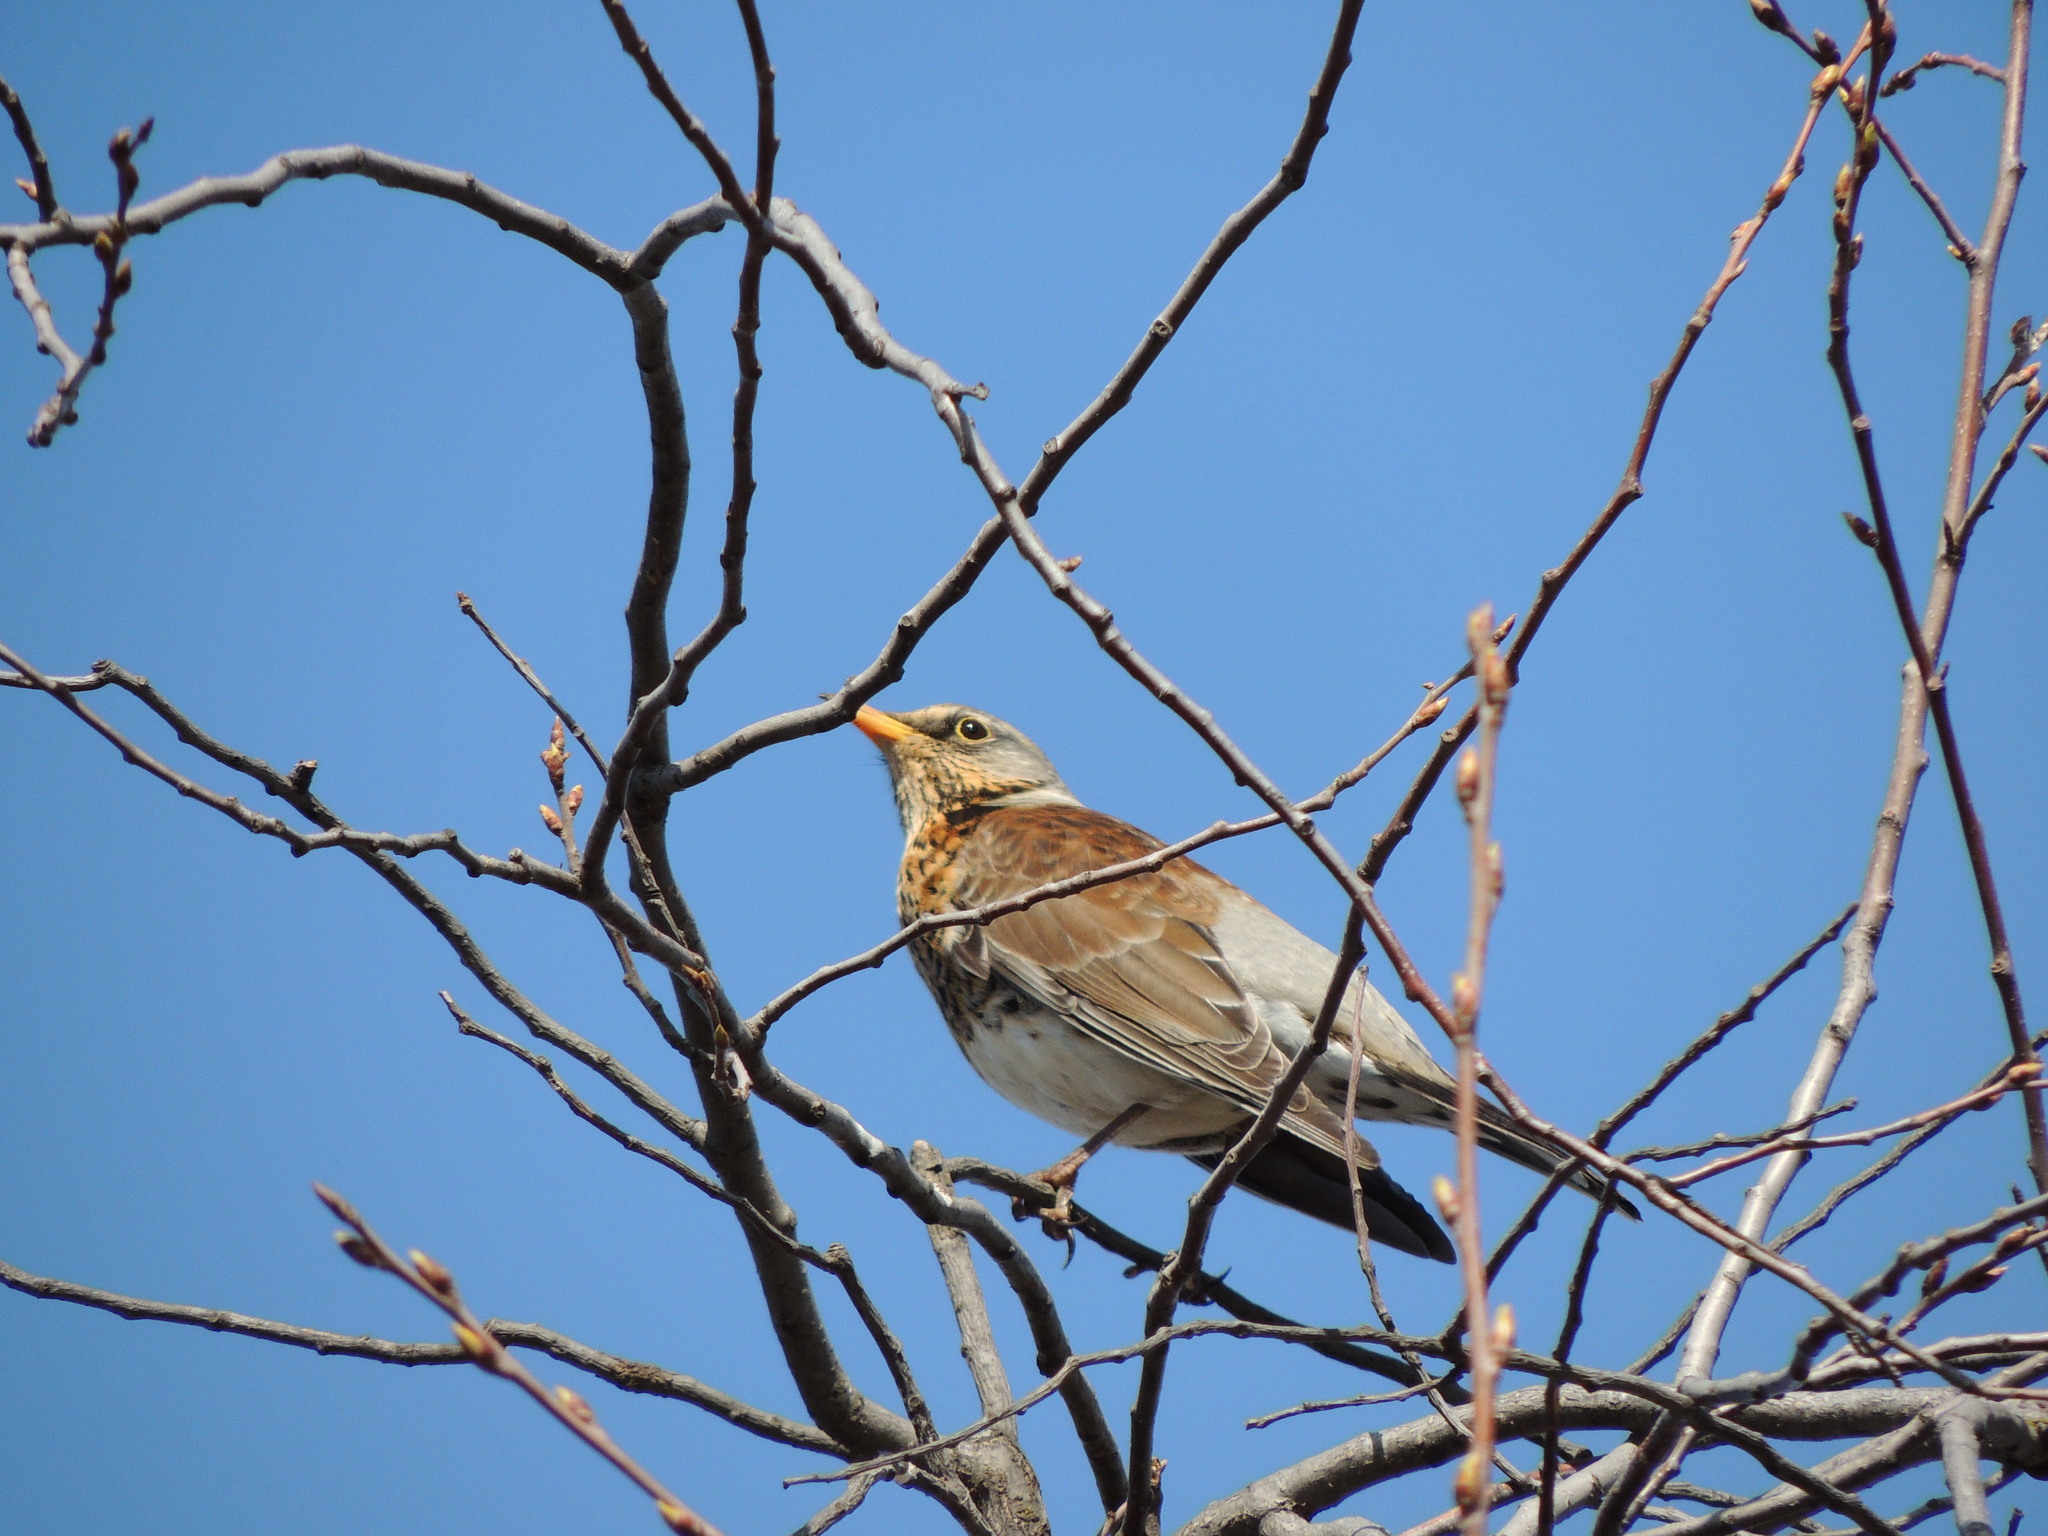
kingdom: Animalia
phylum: Chordata
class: Aves
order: Passeriformes
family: Turdidae
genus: Turdus
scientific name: Turdus pilaris
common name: Fieldfare
